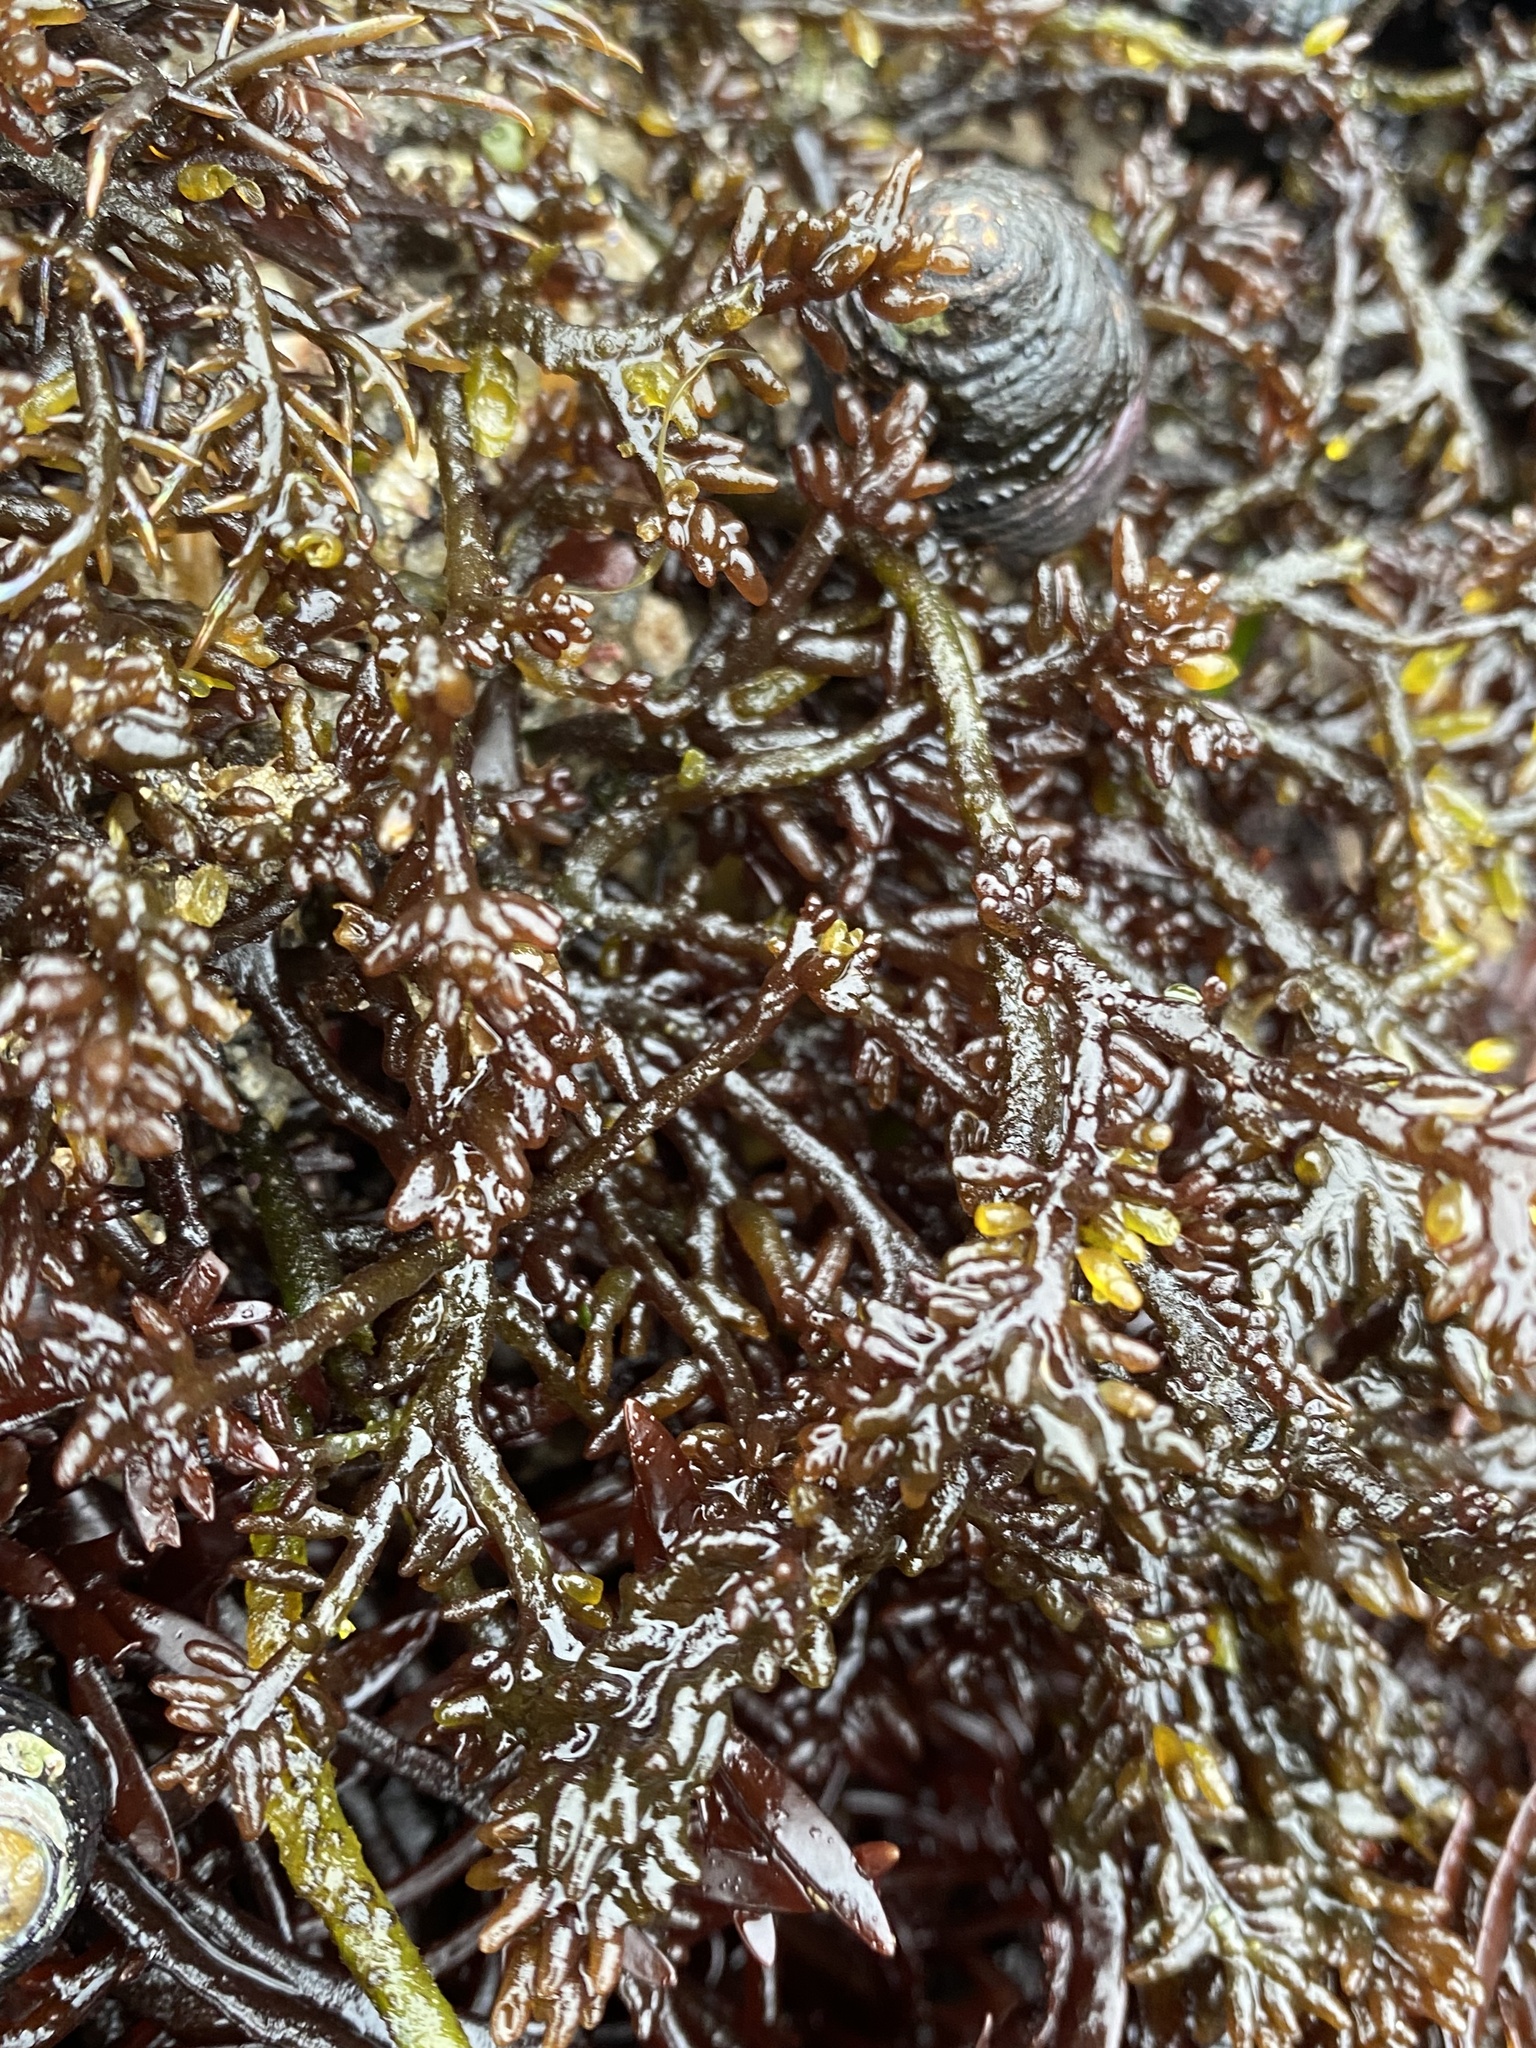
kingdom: Plantae
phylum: Rhodophyta
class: Florideophyceae
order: Rhodymeniales
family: Champiaceae
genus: Neogastroclonium
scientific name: Neogastroclonium subarticulatum
